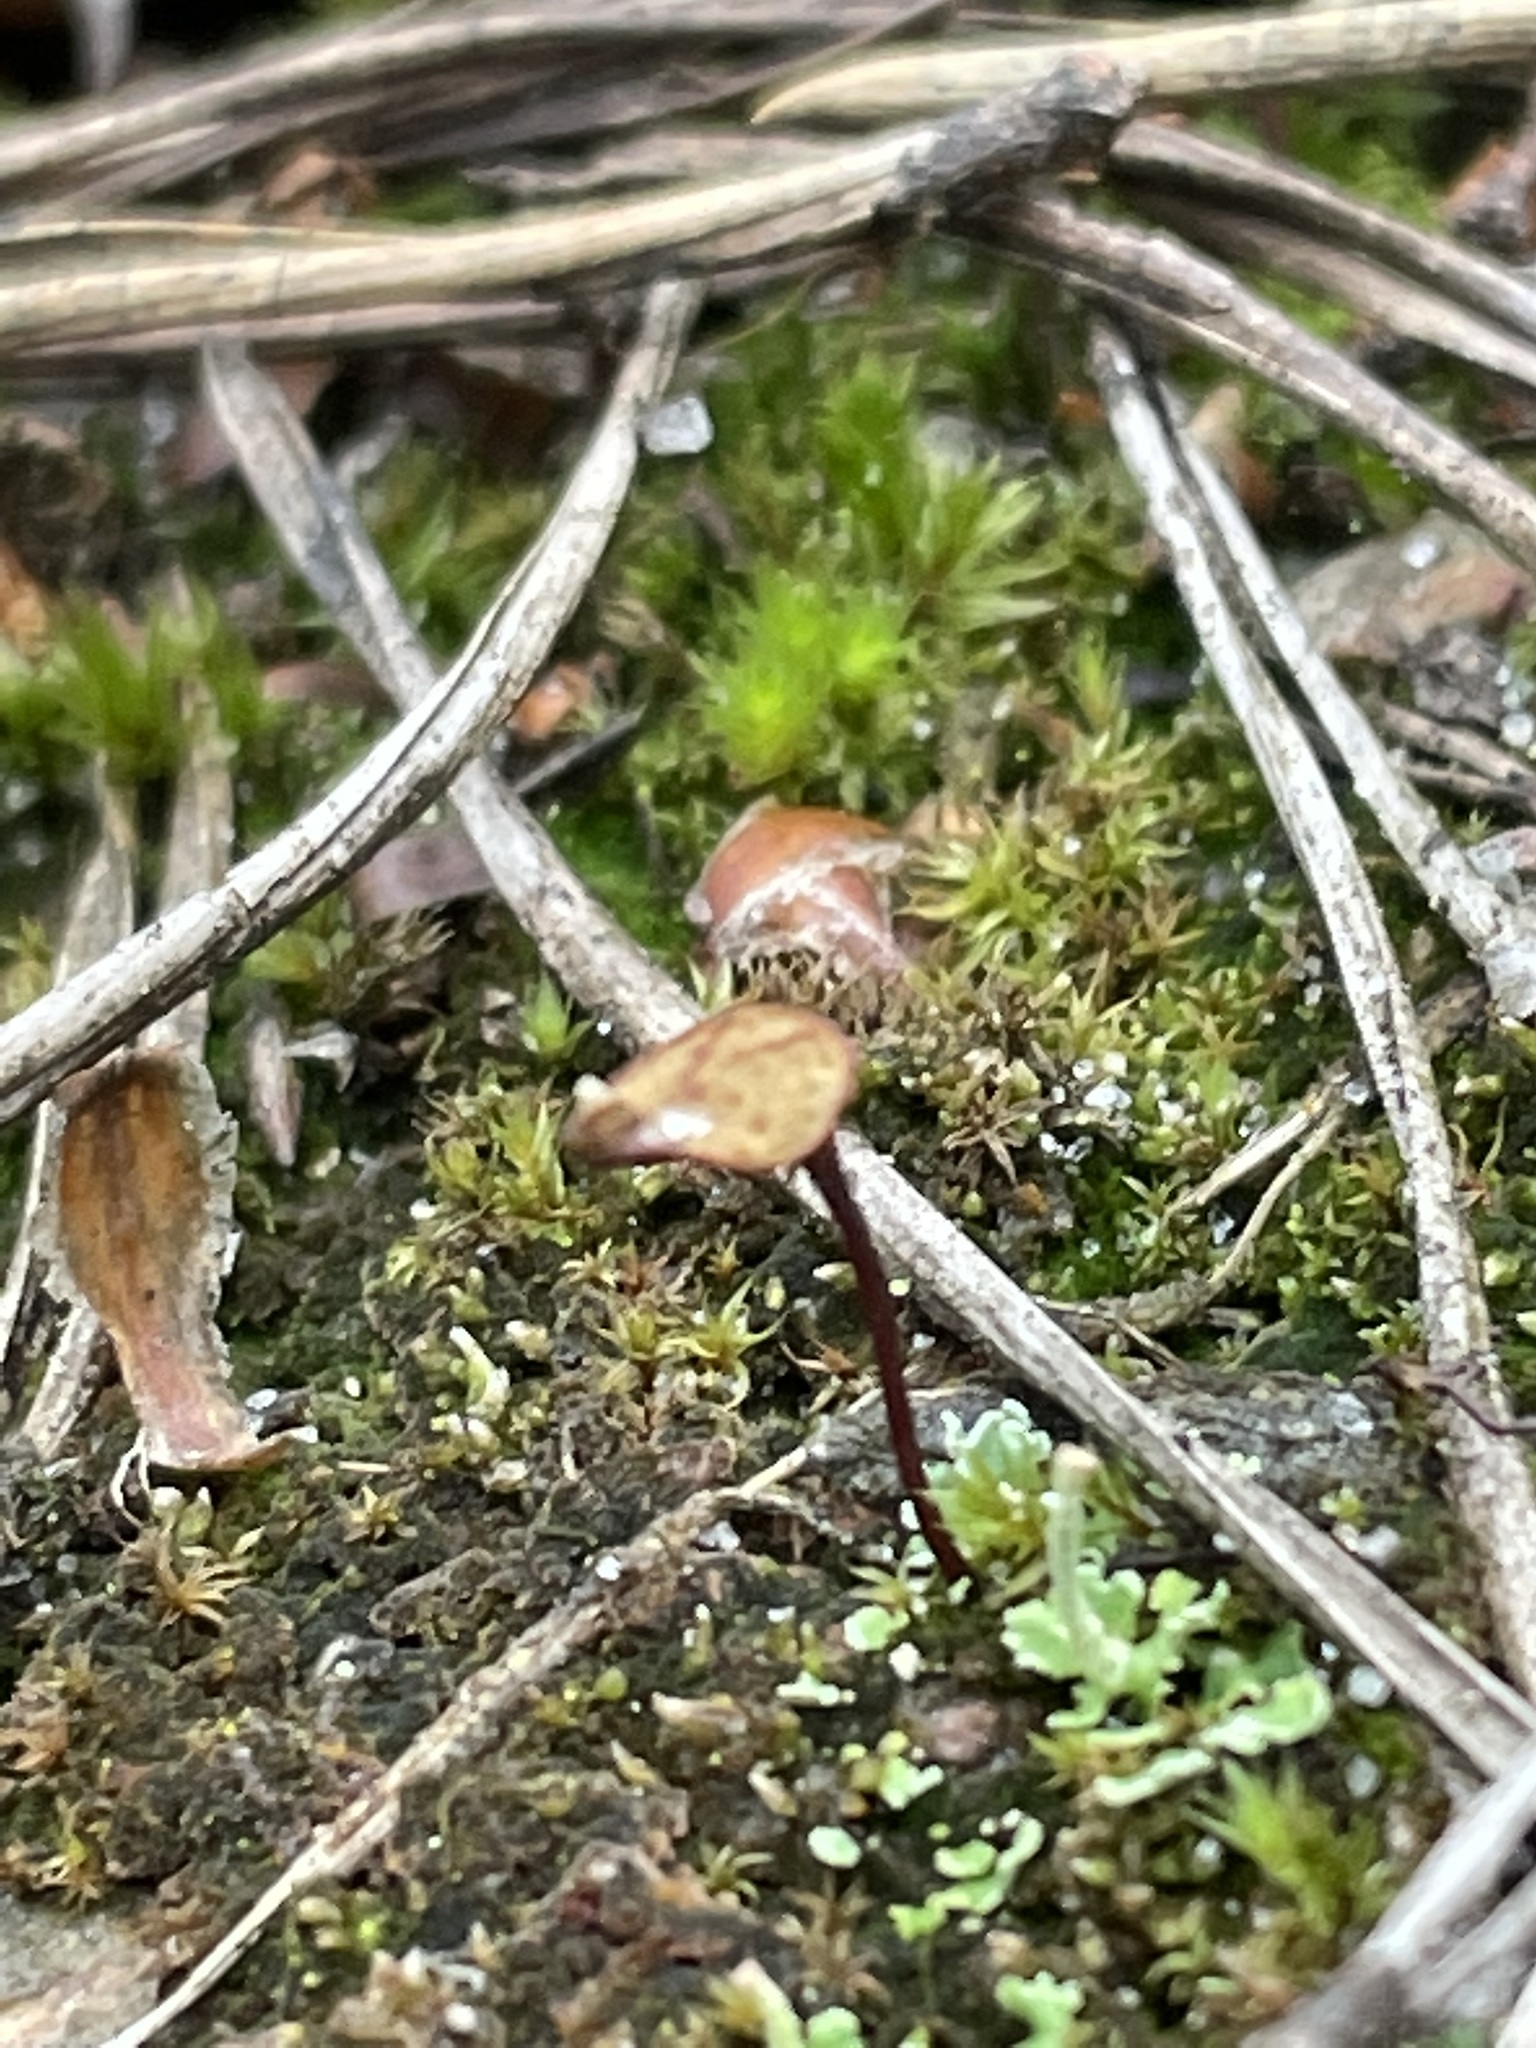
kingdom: Plantae
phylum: Bryophyta
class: Bryopsida
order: Buxbaumiales
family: Buxbaumiaceae
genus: Buxbaumia
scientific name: Buxbaumia aphylla
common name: Brown shield-moss
